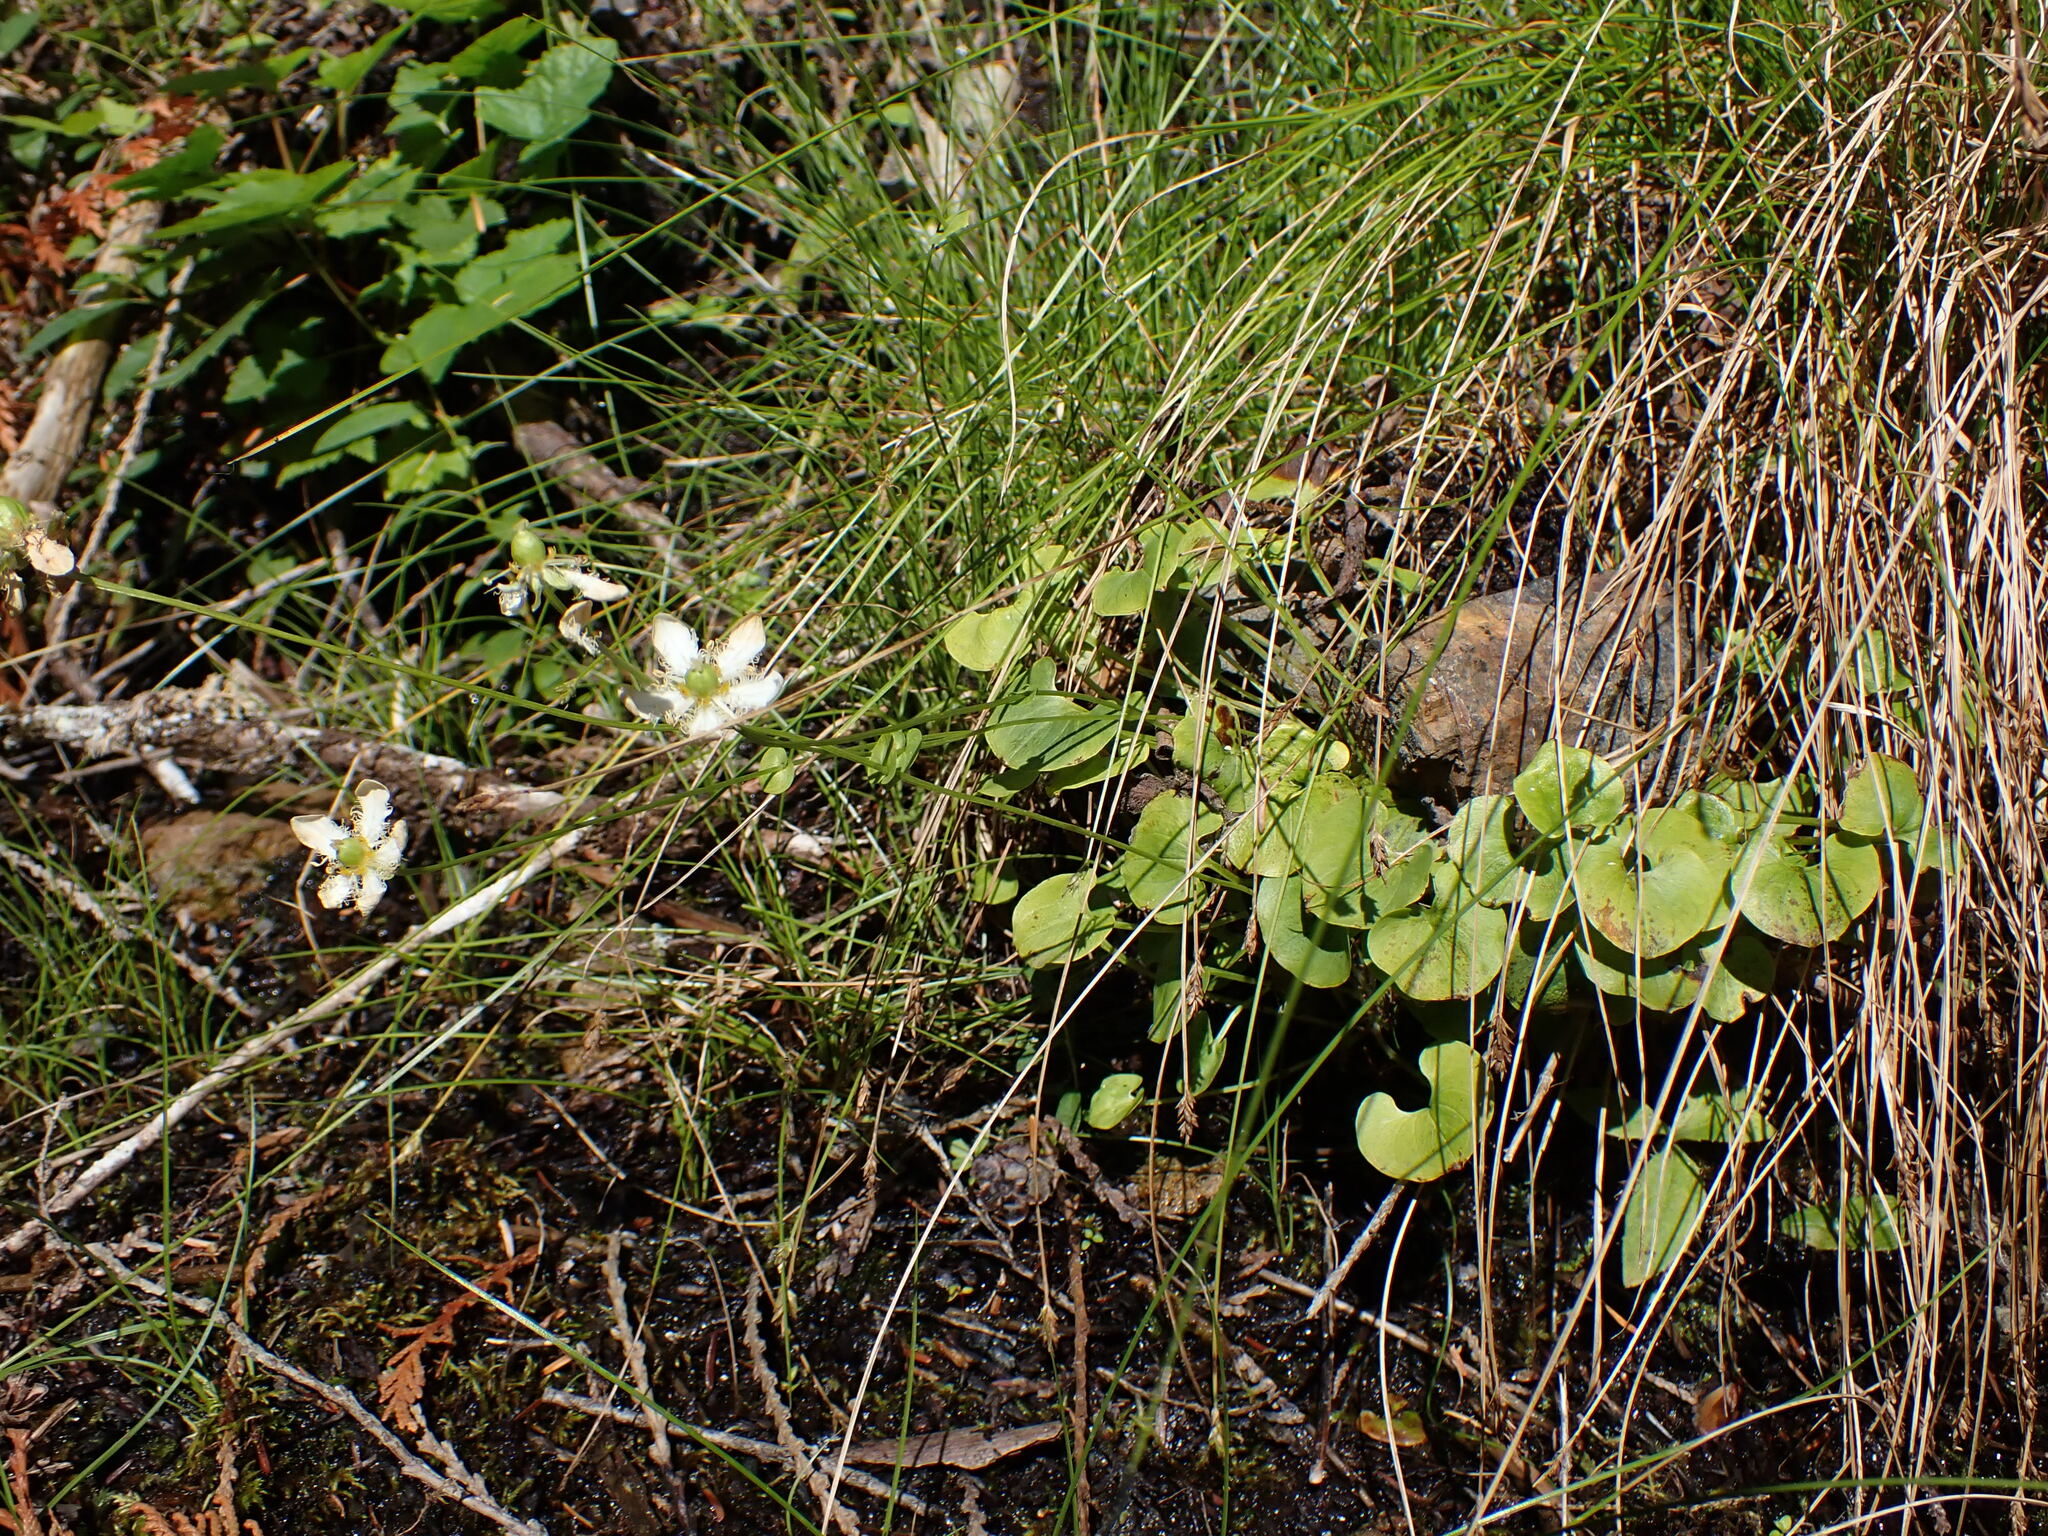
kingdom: Plantae
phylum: Tracheophyta
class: Magnoliopsida
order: Asterales
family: Menyanthaceae
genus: Nephrophyllidium
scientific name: Nephrophyllidium crista-galli
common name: Deer-cabbage
